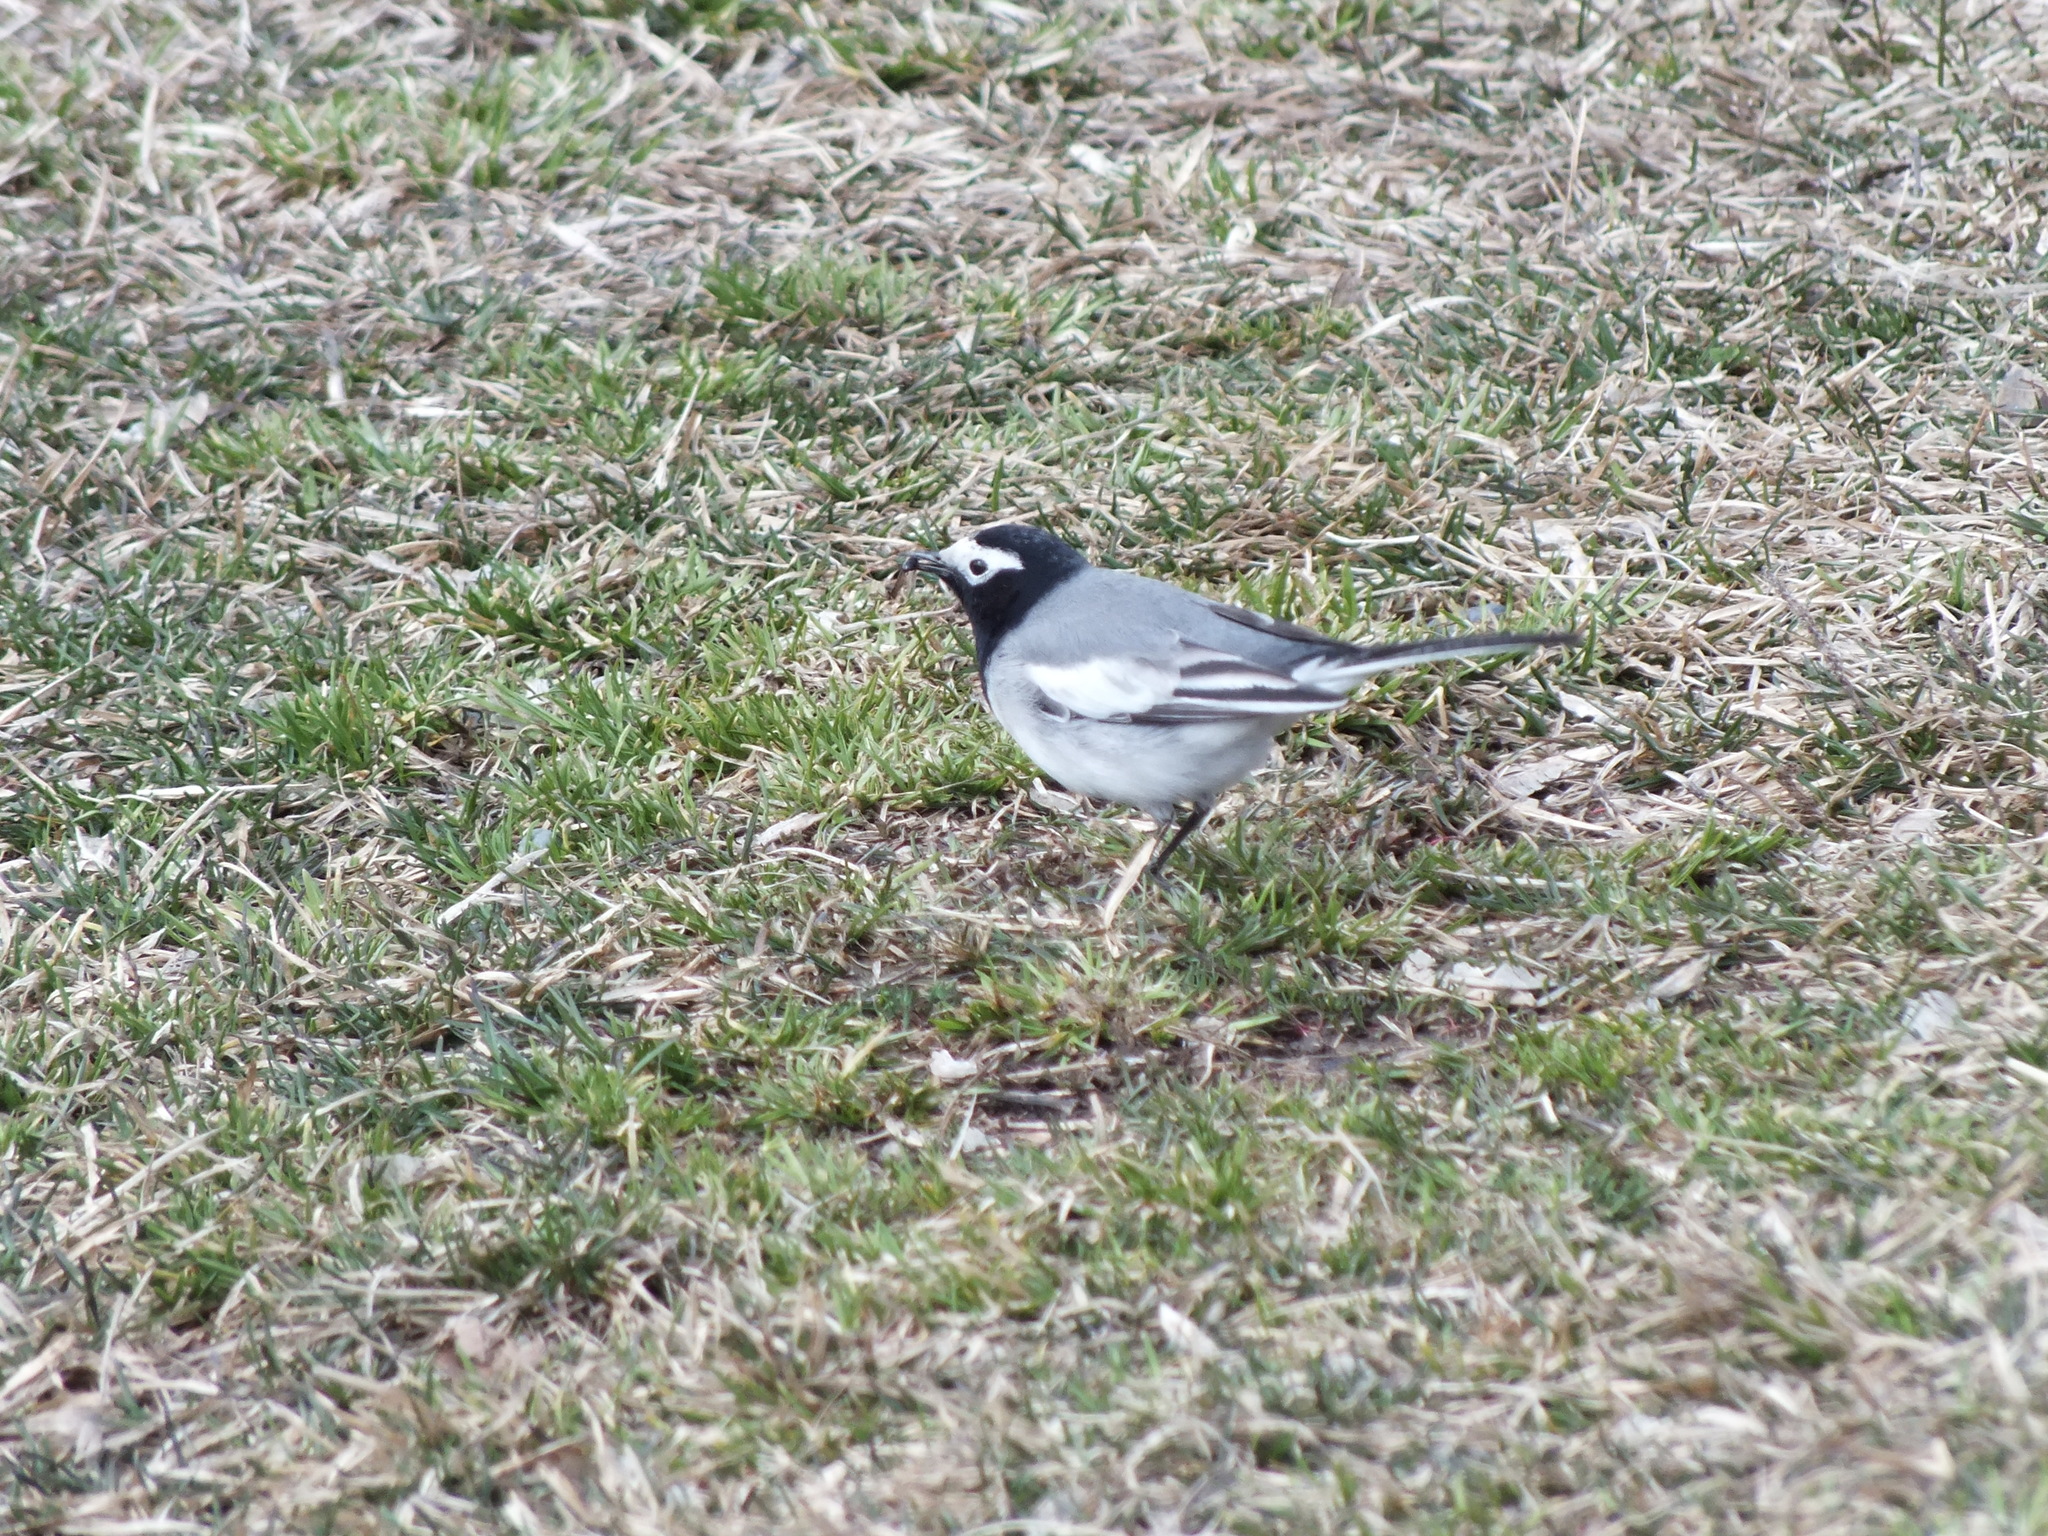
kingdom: Animalia
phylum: Chordata
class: Aves
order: Passeriformes
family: Motacillidae
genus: Motacilla
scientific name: Motacilla alba
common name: White wagtail
